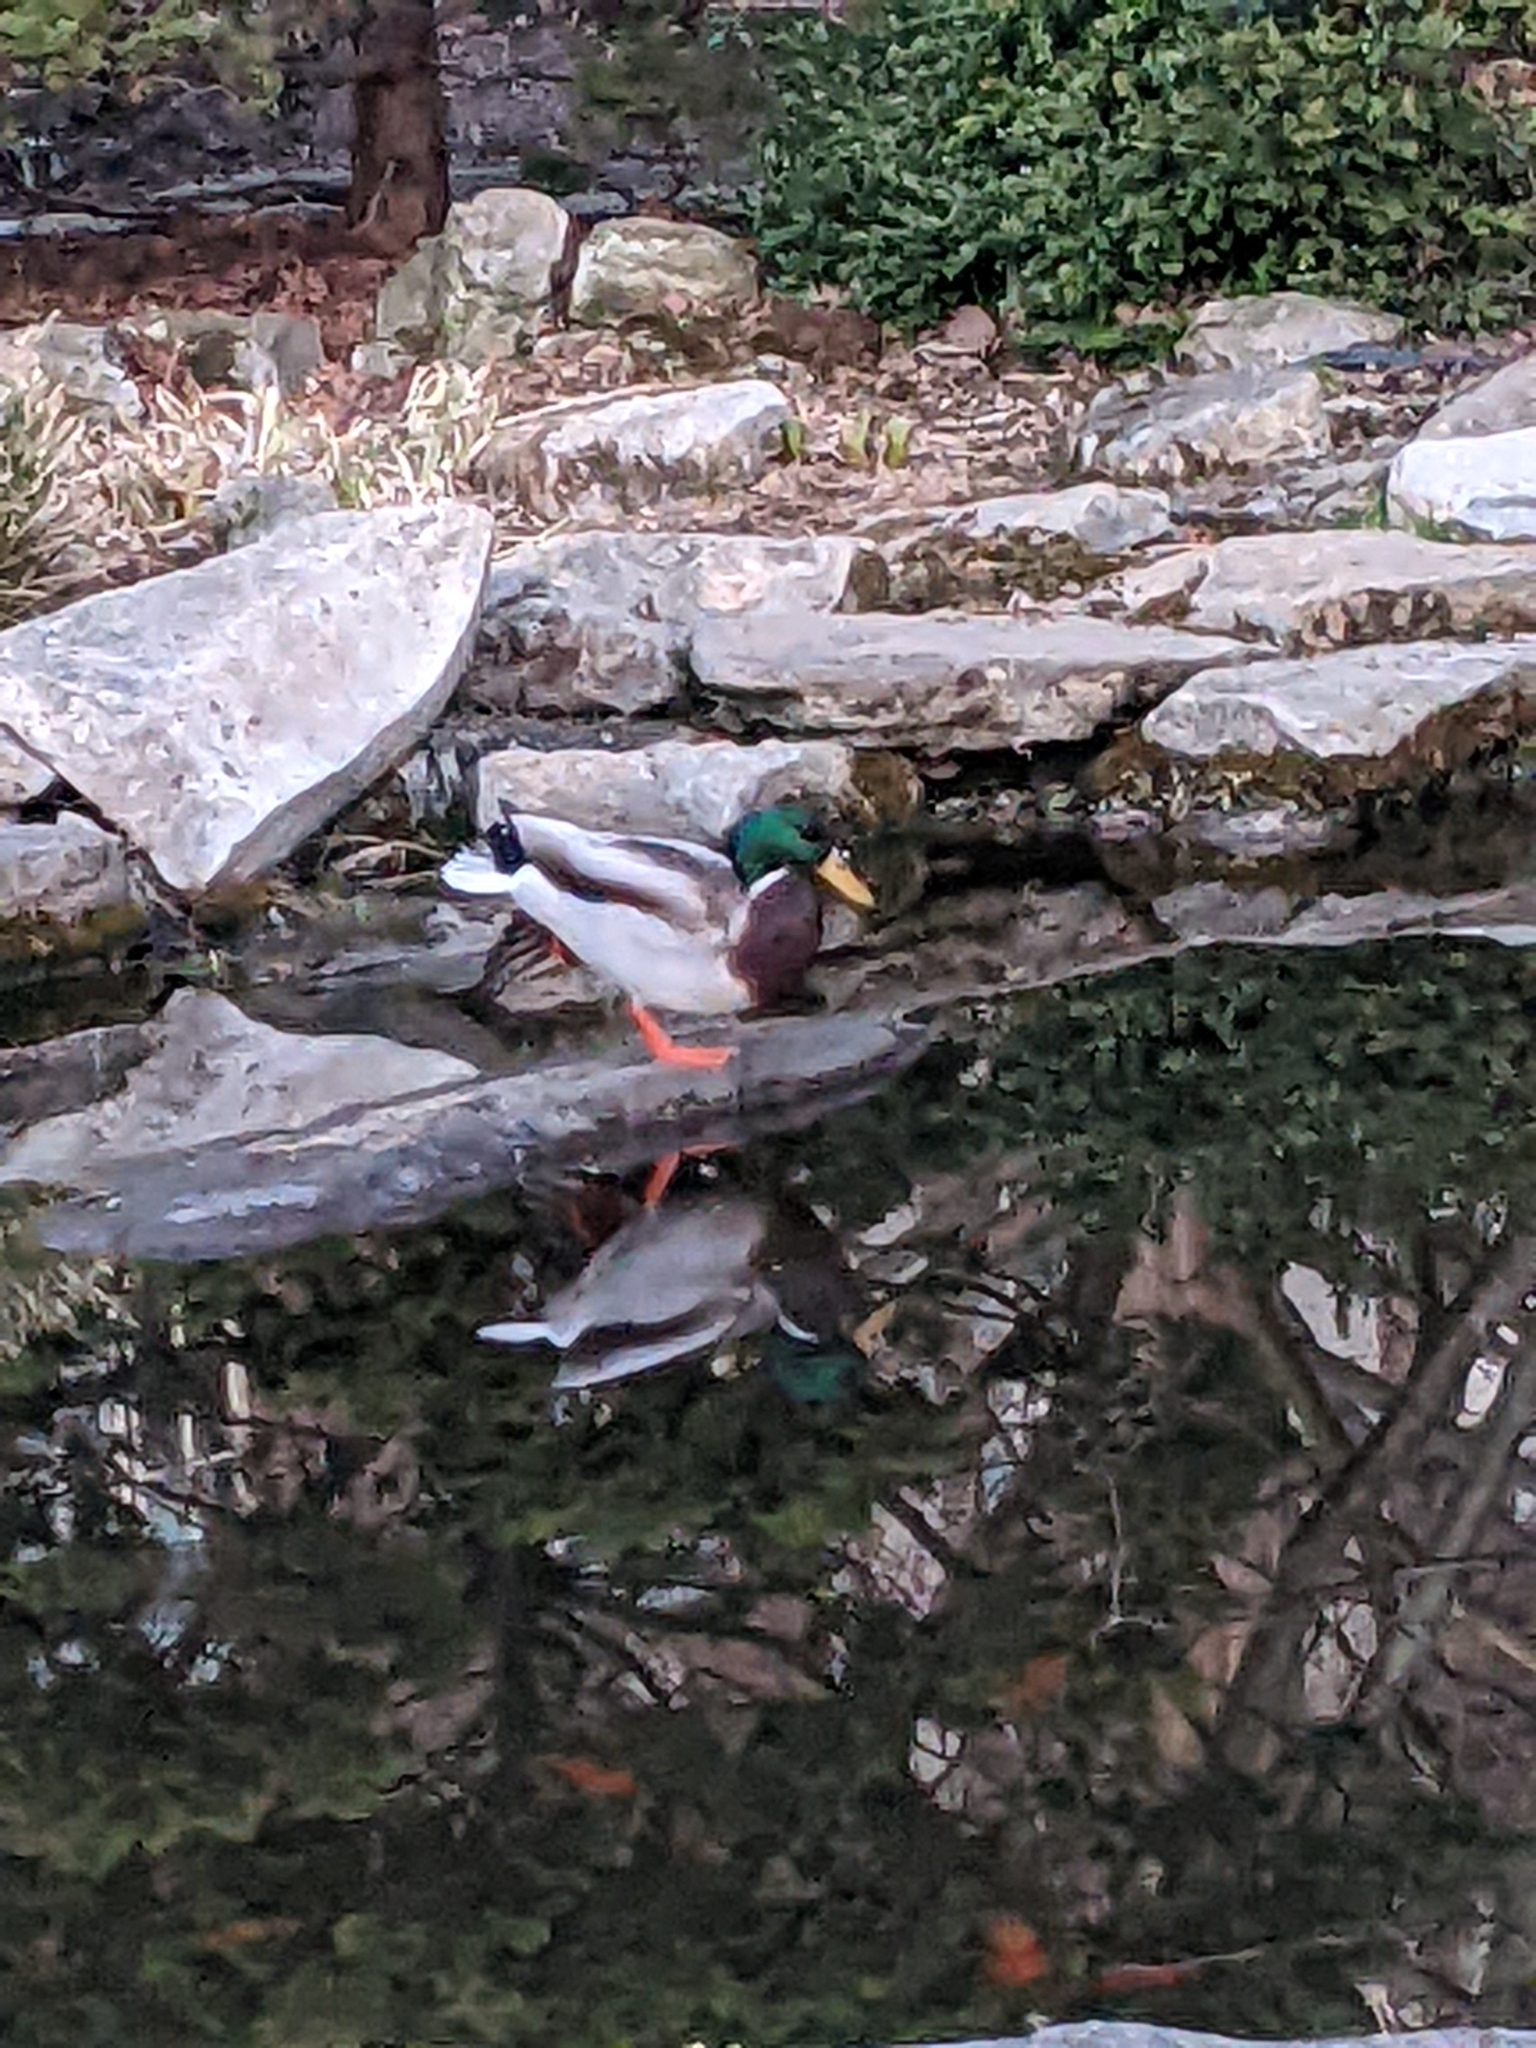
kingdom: Animalia
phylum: Chordata
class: Aves
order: Anseriformes
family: Anatidae
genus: Anas
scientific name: Anas platyrhynchos
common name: Mallard
